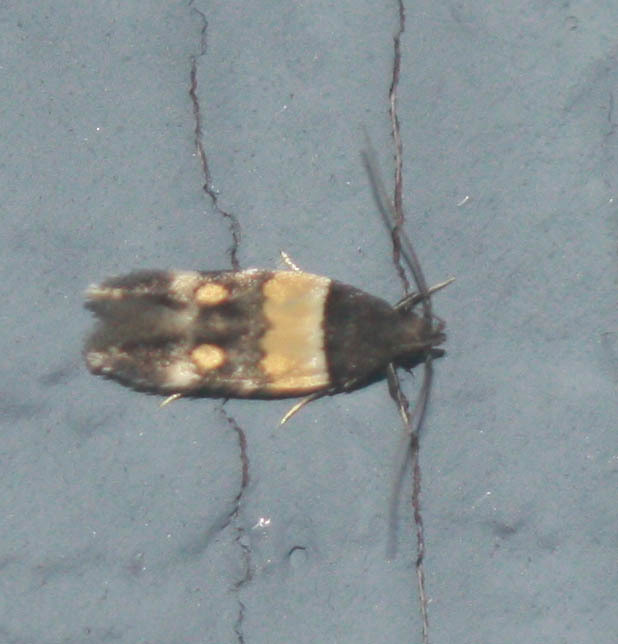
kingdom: Animalia
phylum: Arthropoda
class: Insecta
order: Lepidoptera
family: Momphidae
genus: Triclonella
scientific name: Triclonella determinatella
